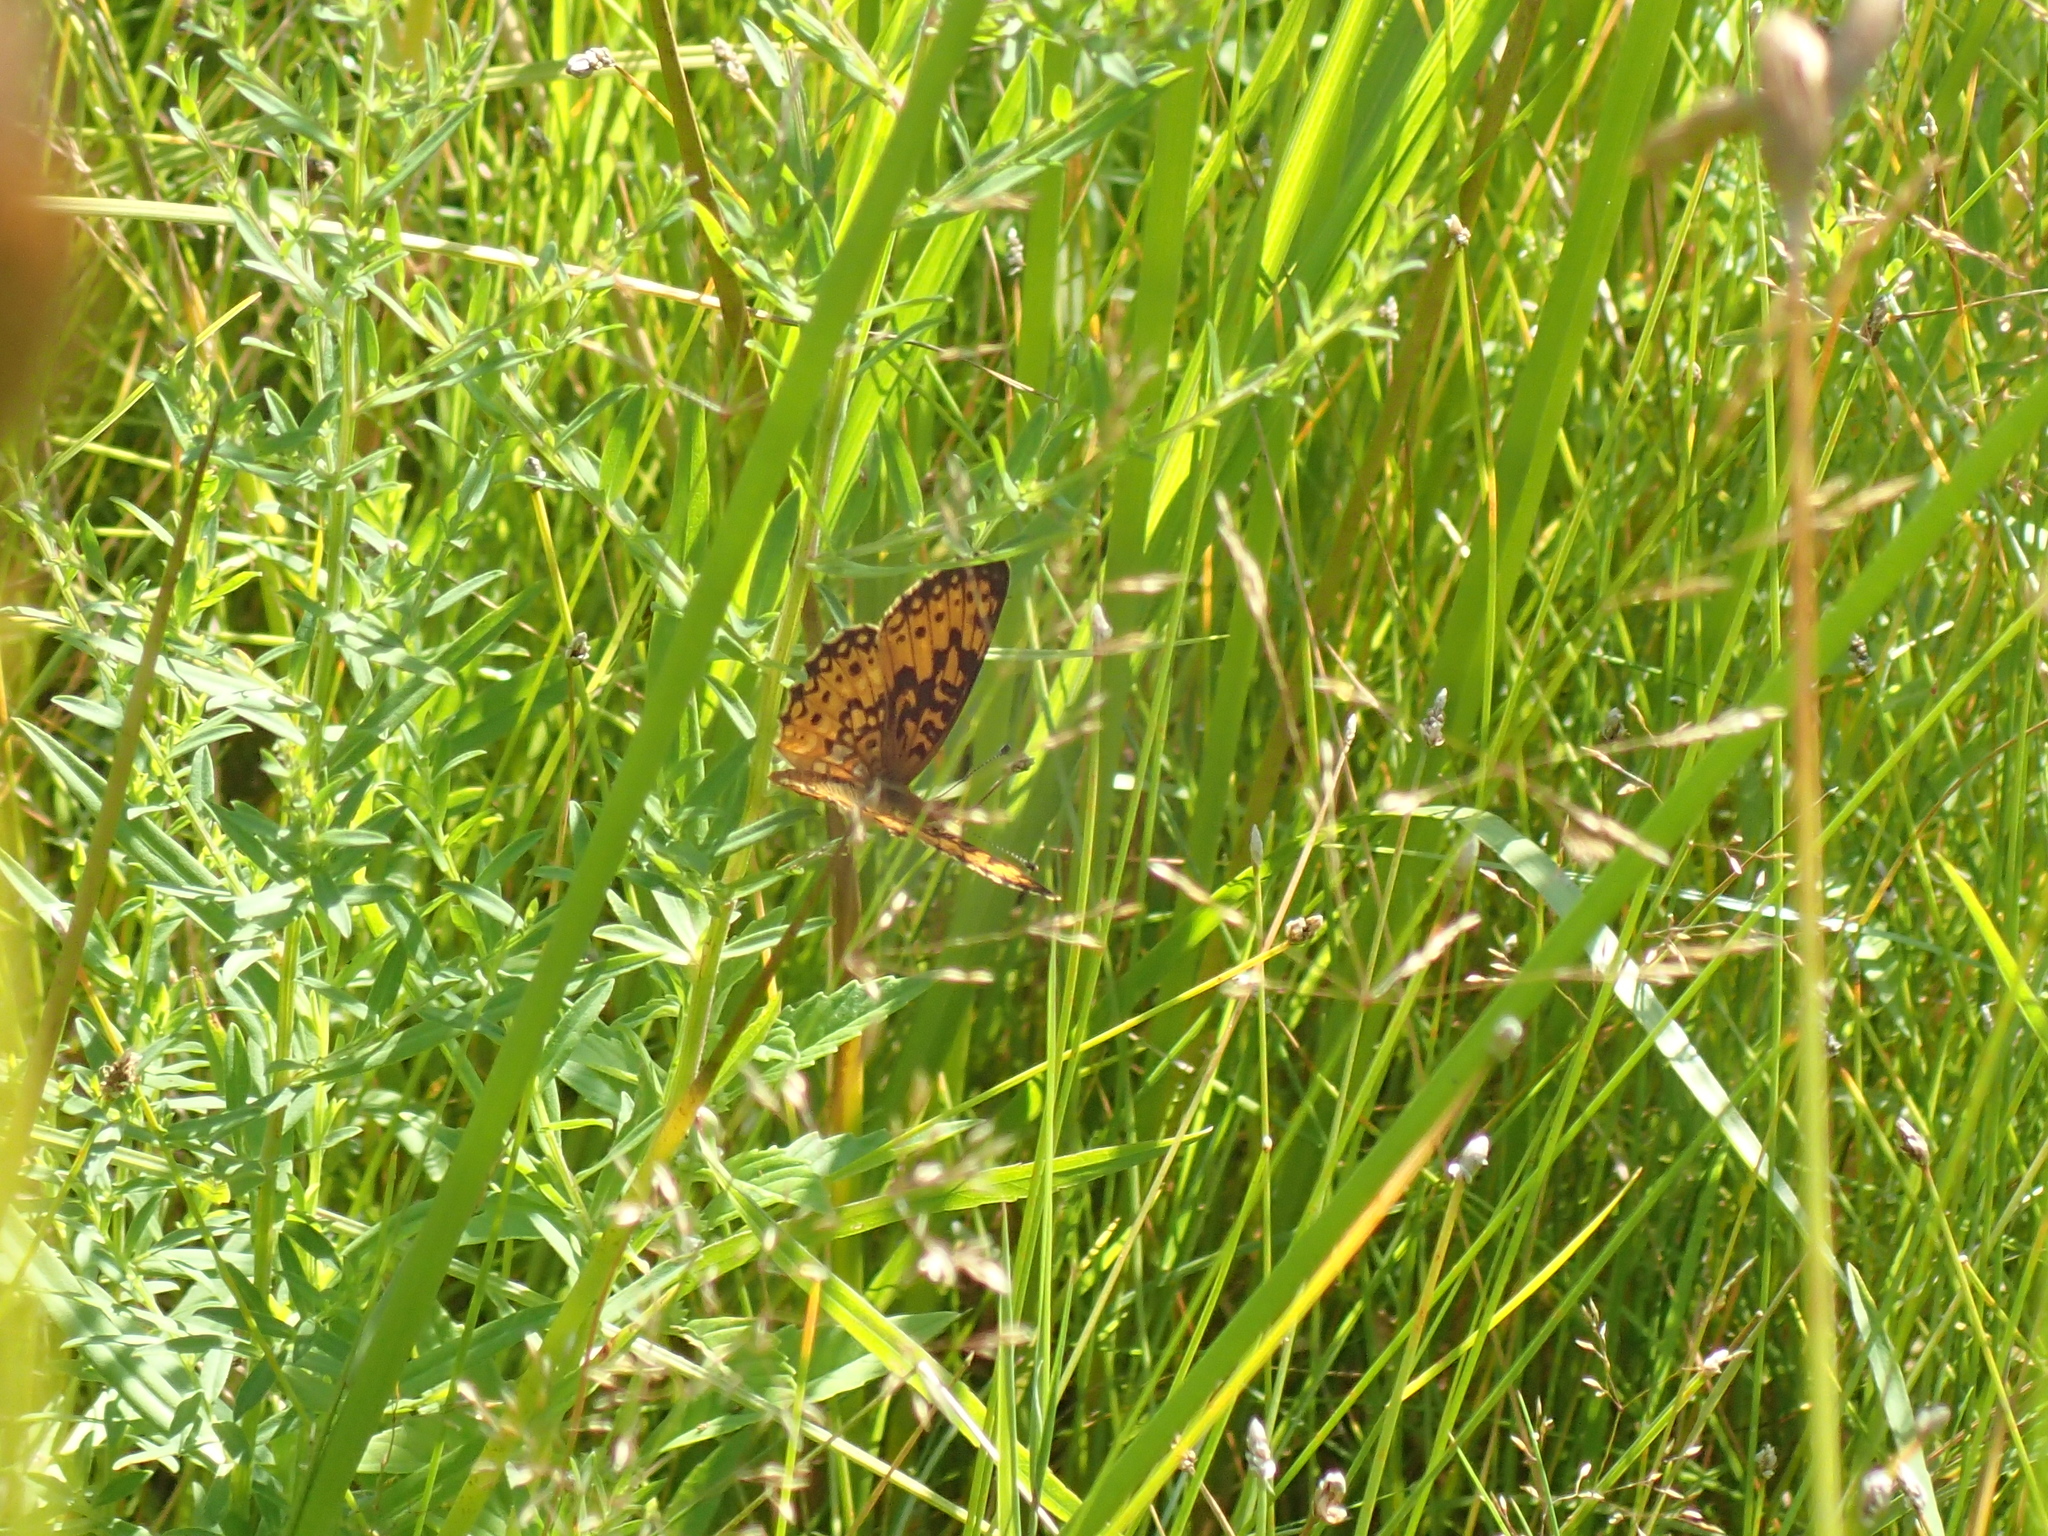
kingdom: Animalia
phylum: Arthropoda
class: Insecta
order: Lepidoptera
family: Nymphalidae
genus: Boloria
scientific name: Boloria
